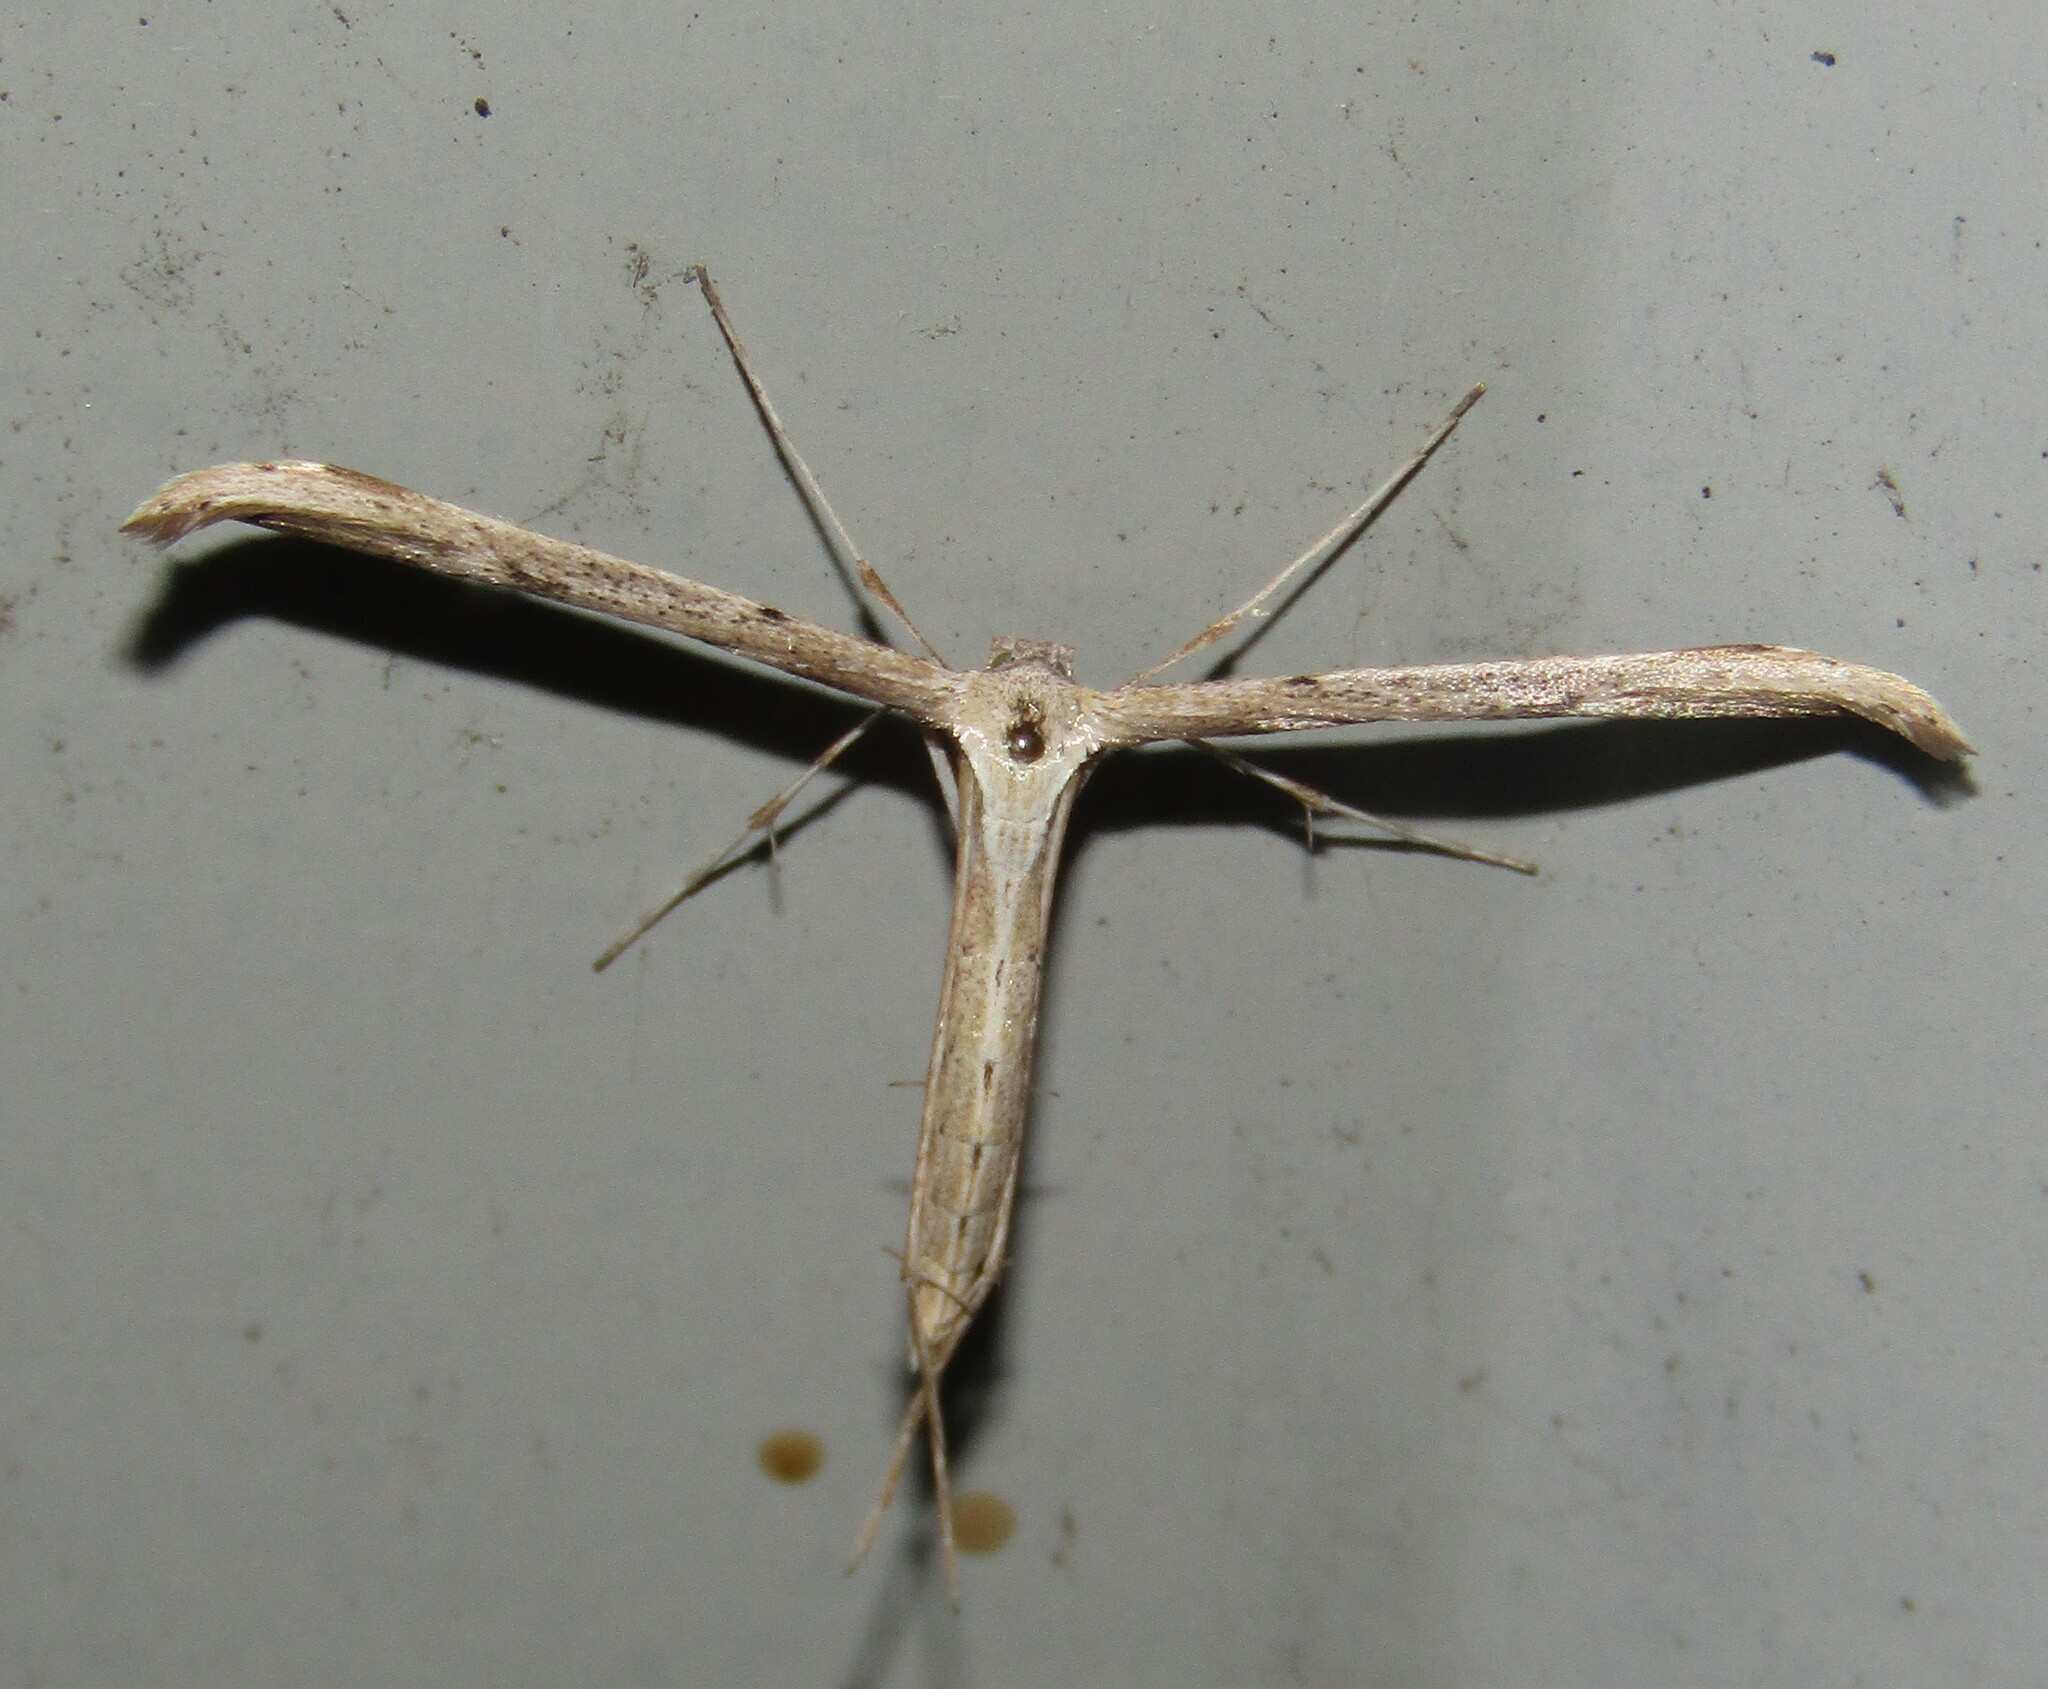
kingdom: Animalia
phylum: Arthropoda
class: Insecta
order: Lepidoptera
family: Pterophoridae
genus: Emmelina
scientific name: Emmelina monodactyla
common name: Common plume
